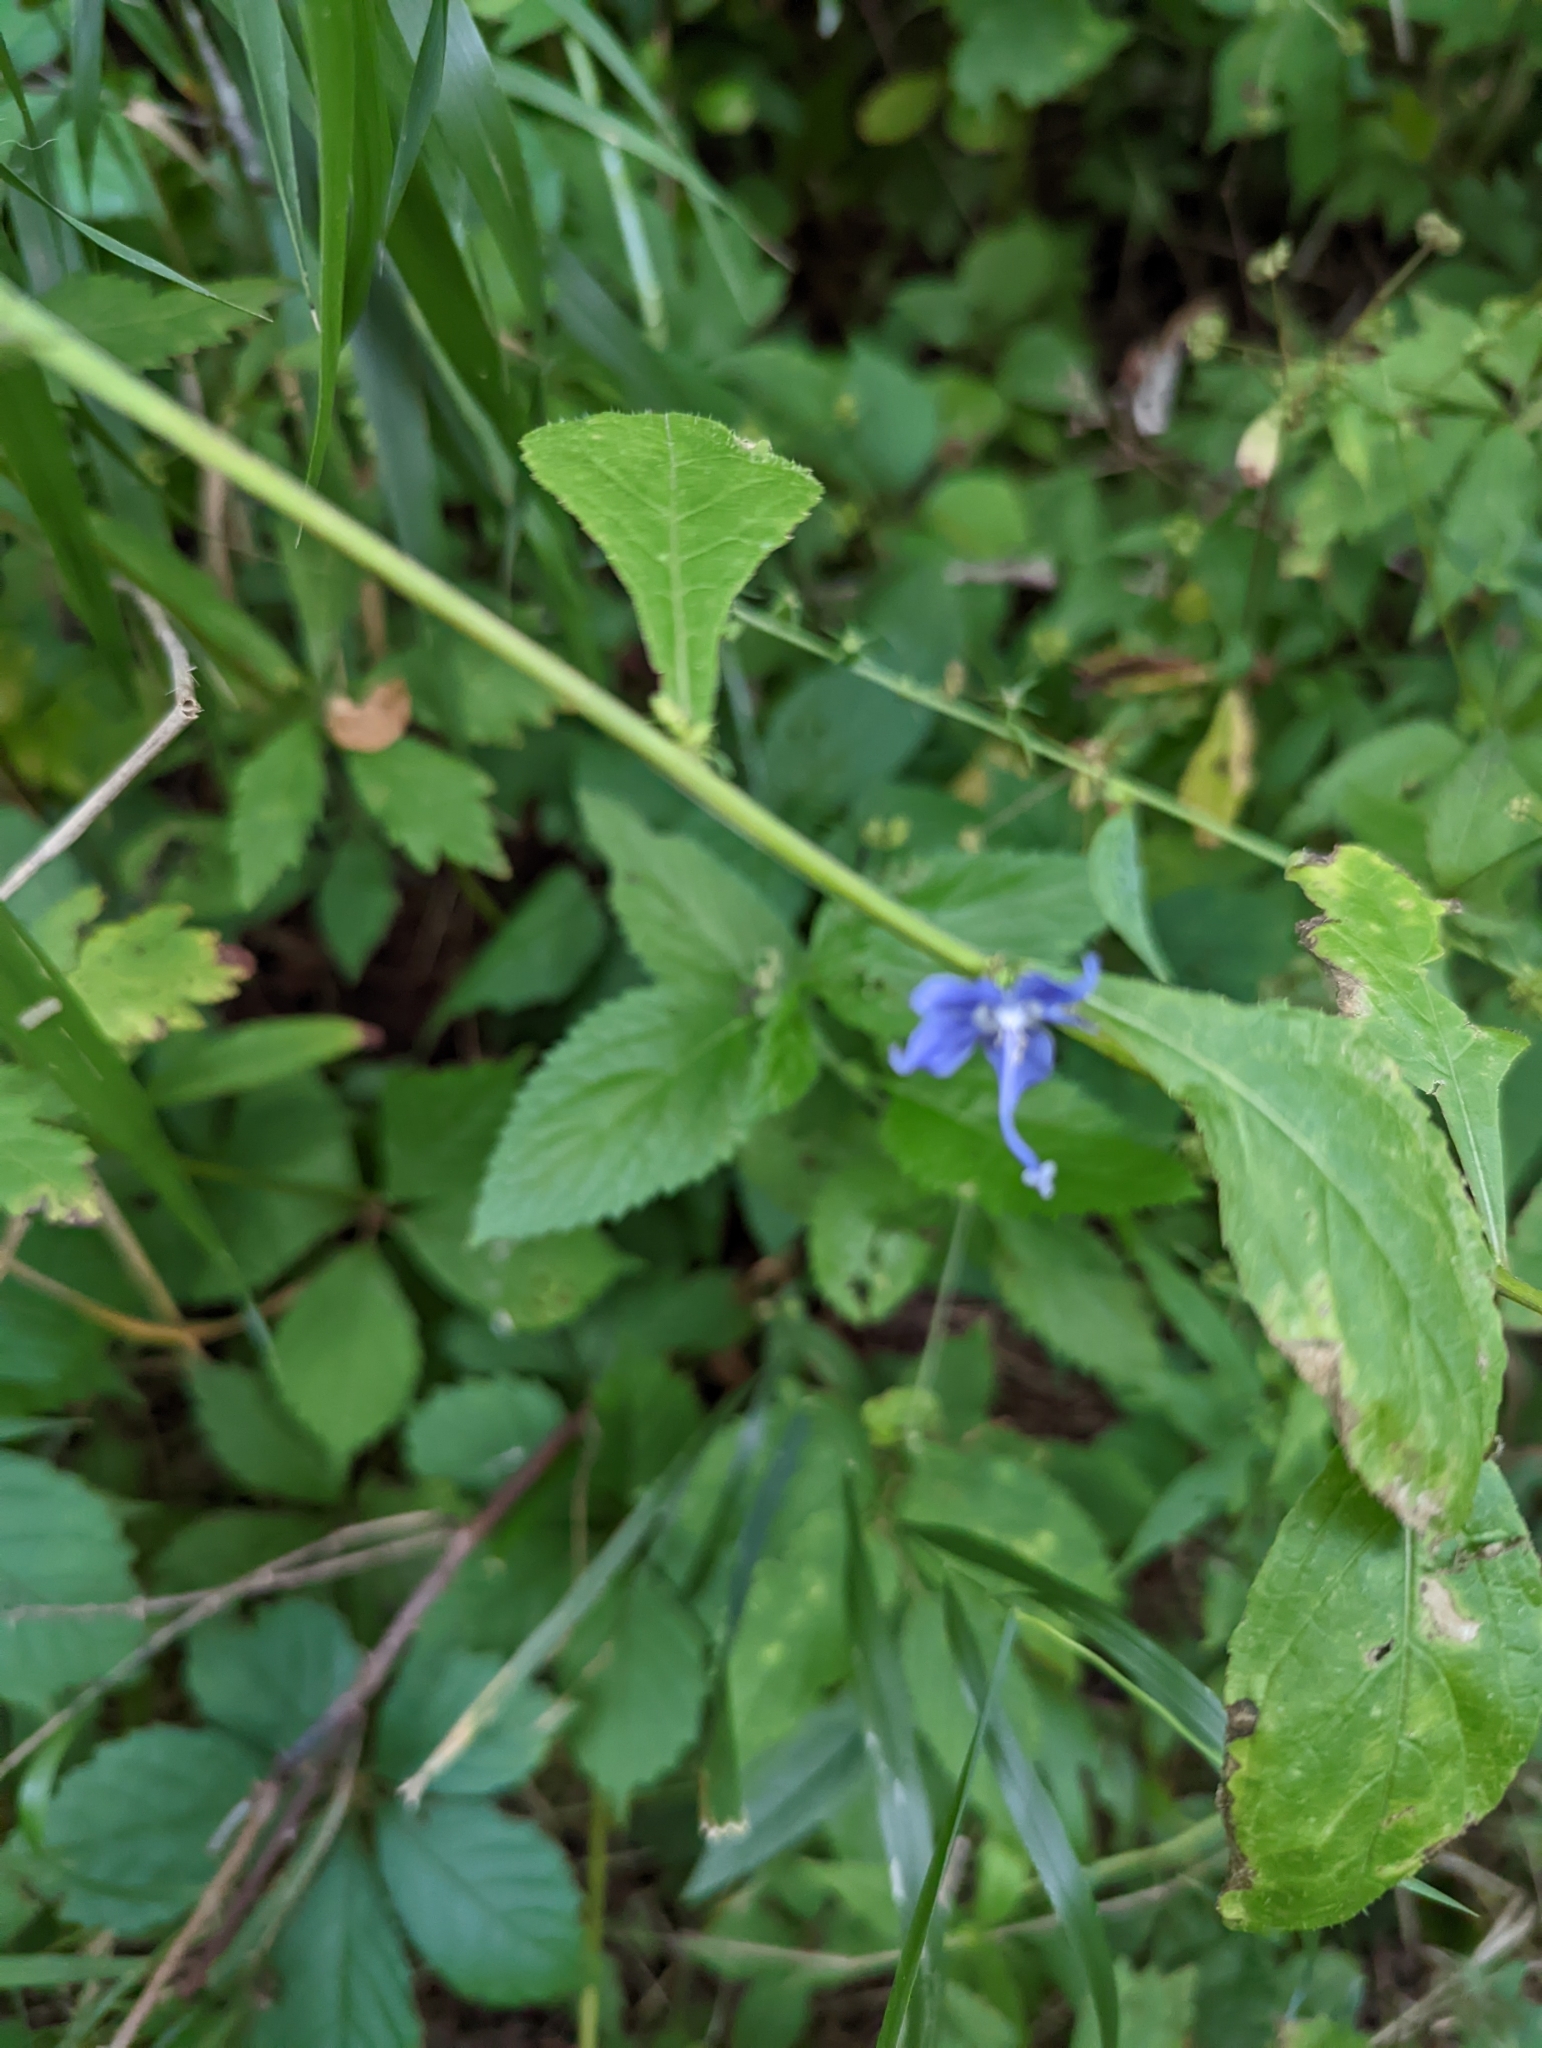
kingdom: Plantae
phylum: Tracheophyta
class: Magnoliopsida
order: Asterales
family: Campanulaceae
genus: Campanulastrum
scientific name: Campanulastrum americanum
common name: American bellflower
